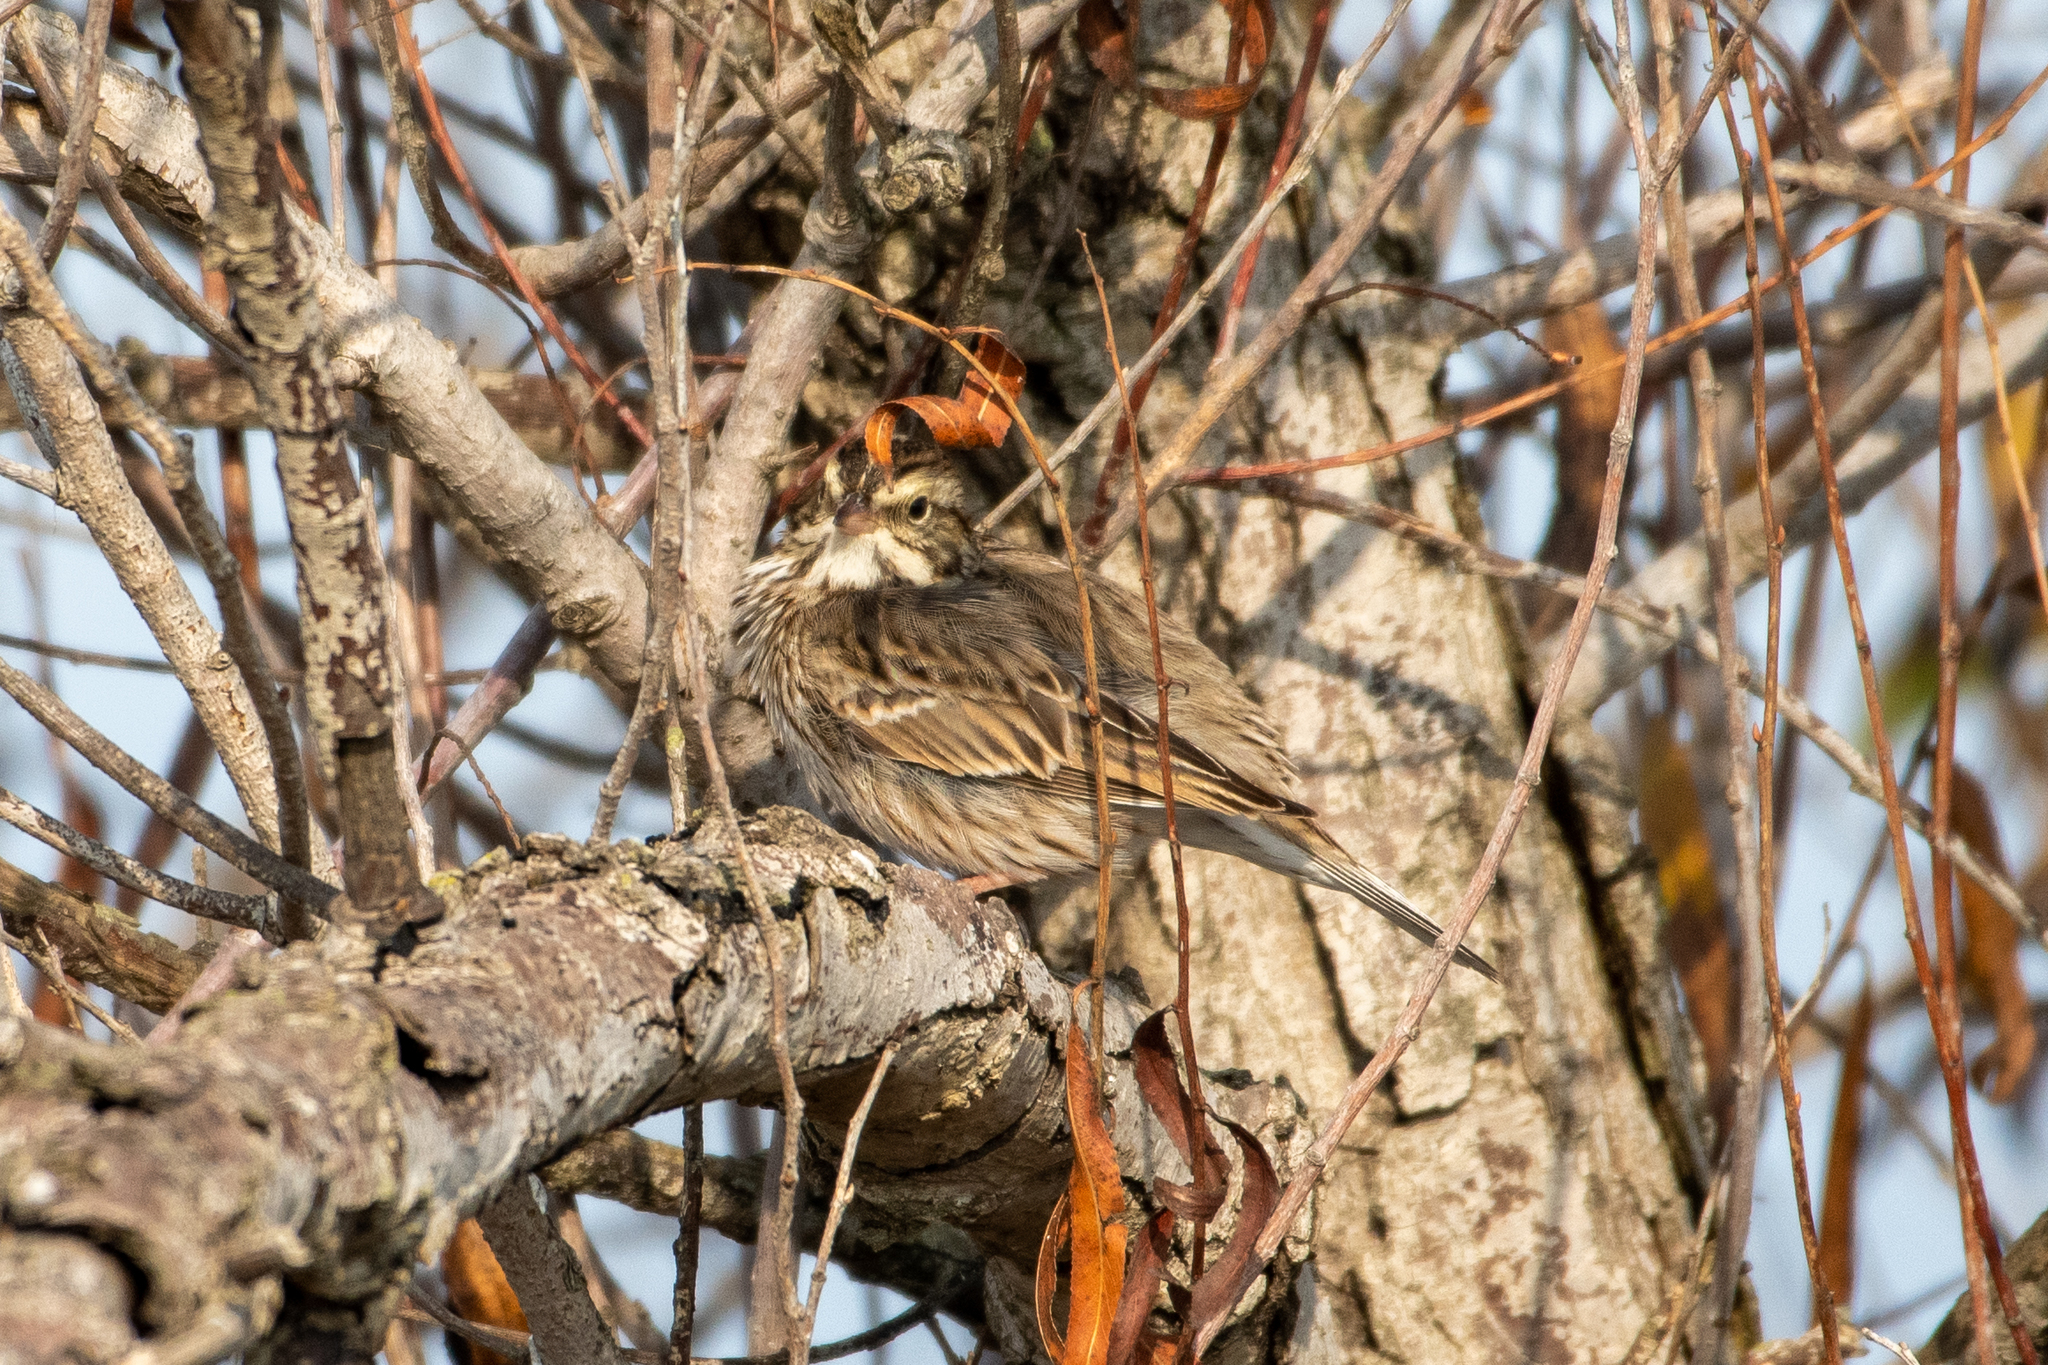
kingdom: Animalia
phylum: Chordata
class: Aves
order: Passeriformes
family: Passerellidae
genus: Passerculus
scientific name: Passerculus sandwichensis
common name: Savannah sparrow
